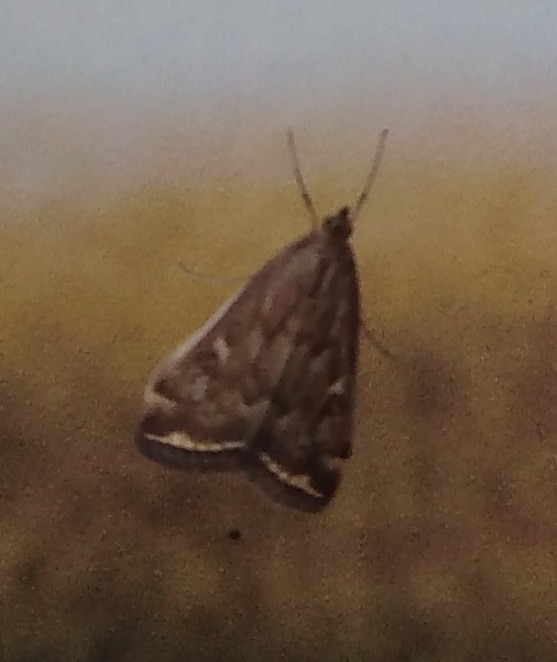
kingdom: Animalia
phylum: Arthropoda
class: Insecta
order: Lepidoptera
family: Crambidae
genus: Loxostege
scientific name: Loxostege sticticalis
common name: Crambid moth
